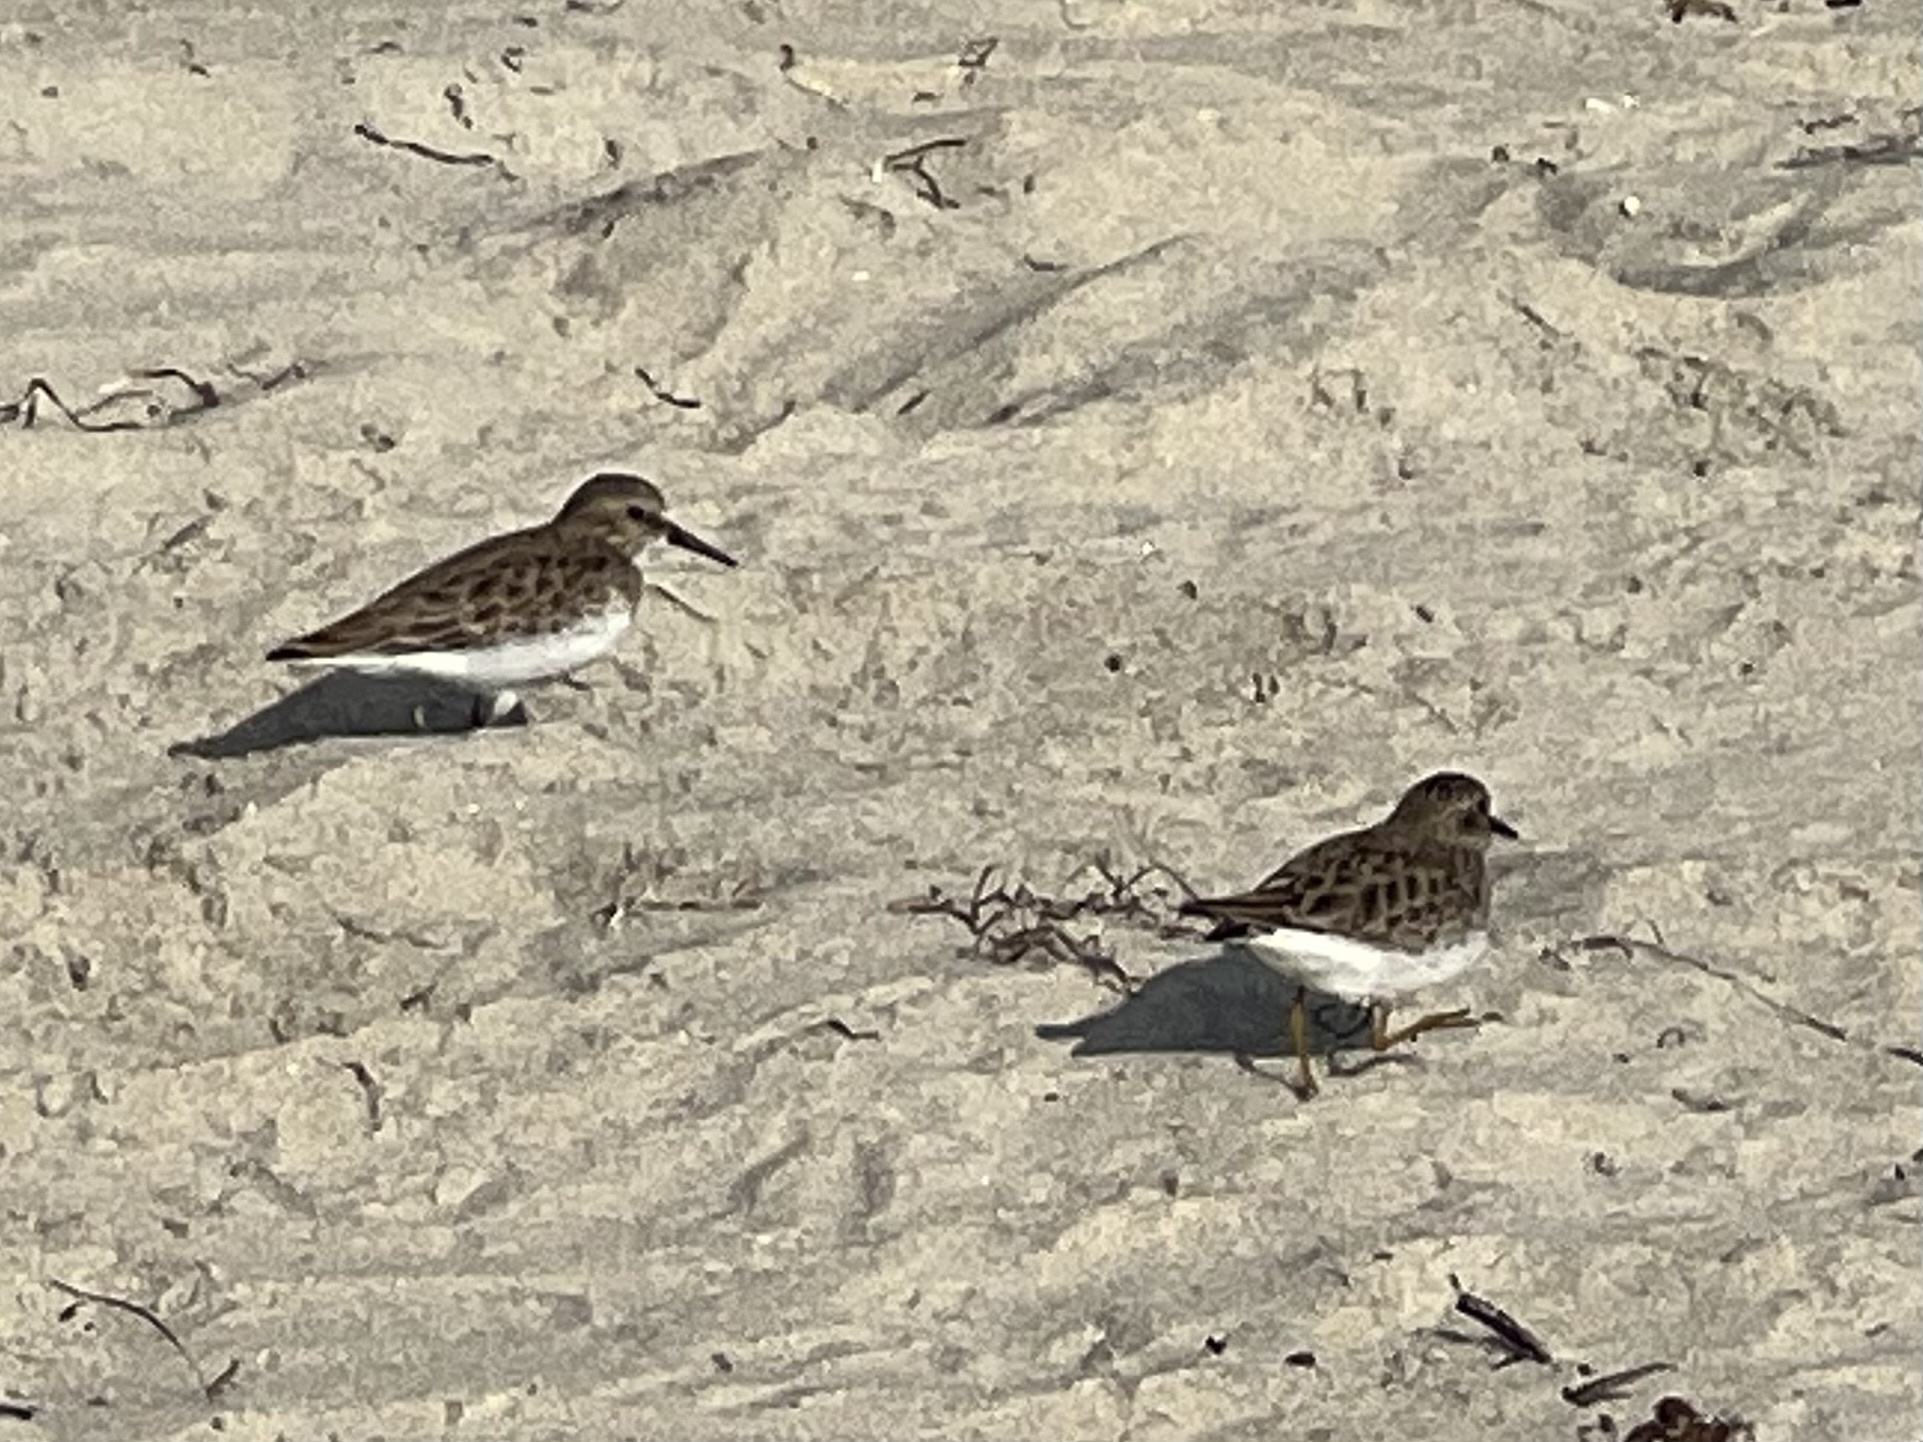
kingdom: Animalia
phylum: Chordata
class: Aves
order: Charadriiformes
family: Scolopacidae
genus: Calidris
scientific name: Calidris minutilla
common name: Least sandpiper
